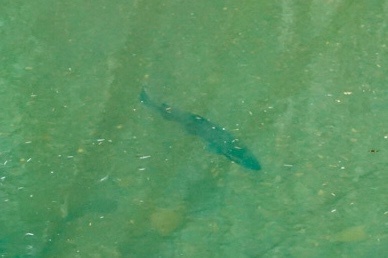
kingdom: Animalia
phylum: Chordata
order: Salmoniformes
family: Salmonidae
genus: Oncorhynchus
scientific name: Oncorhynchus kisutch
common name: Coho salmon
